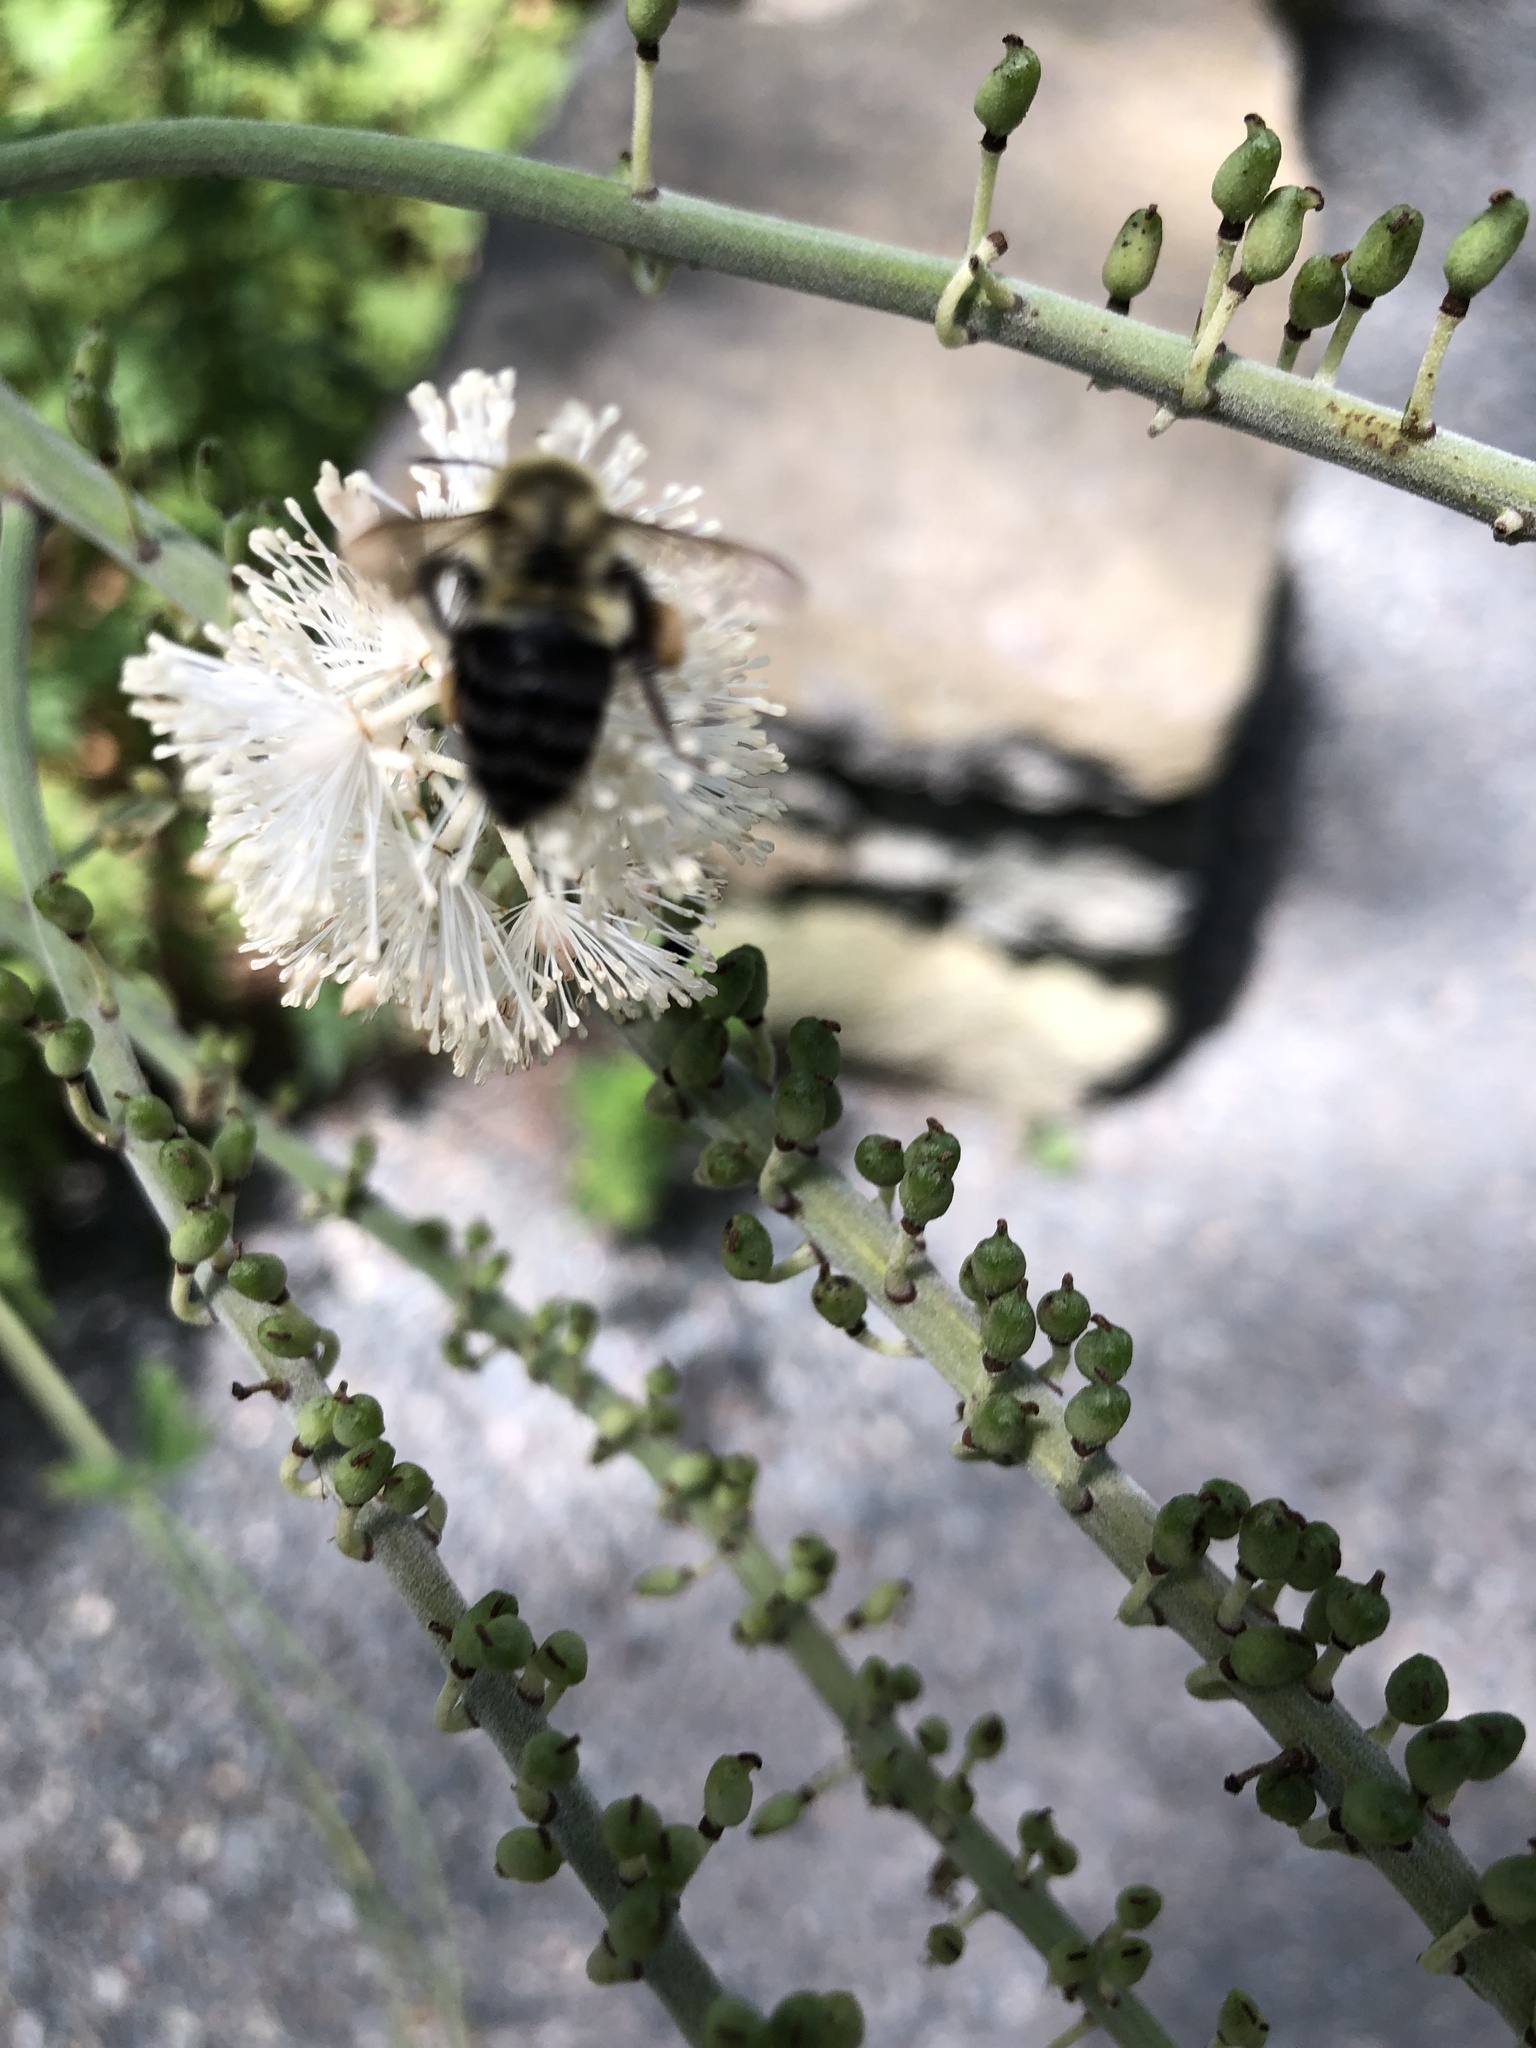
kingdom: Animalia
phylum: Arthropoda
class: Insecta
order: Hymenoptera
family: Apidae
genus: Bombus
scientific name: Bombus impatiens
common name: Common eastern bumble bee
